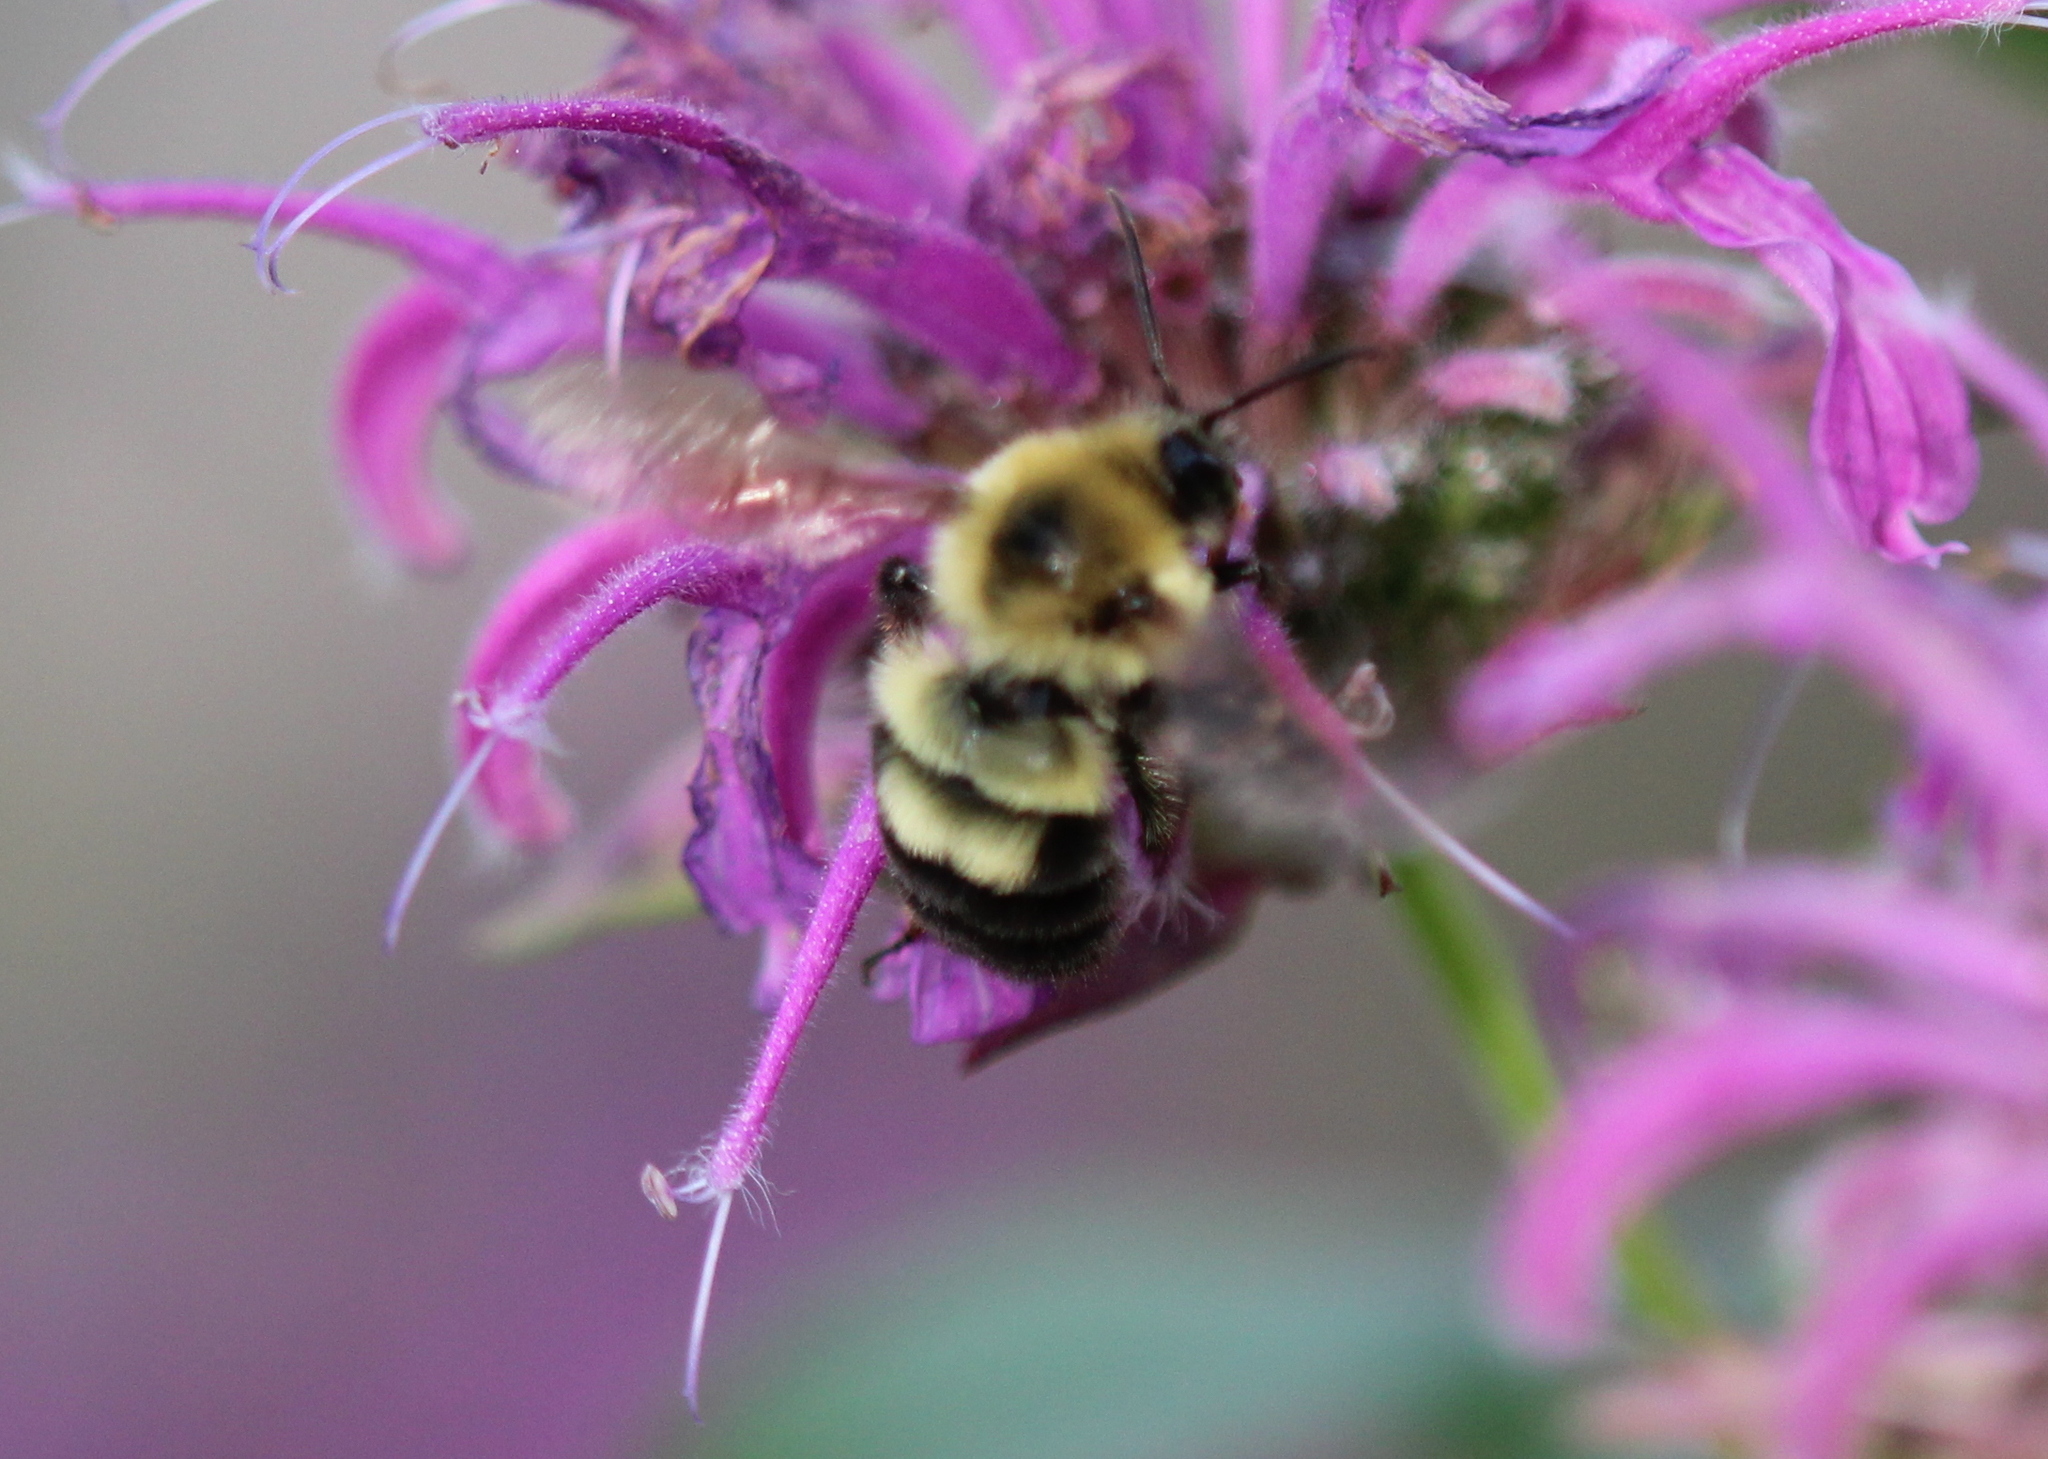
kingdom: Animalia
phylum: Arthropoda
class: Insecta
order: Hymenoptera
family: Apidae
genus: Bombus
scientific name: Bombus bimaculatus
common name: Two-spotted bumble bee
